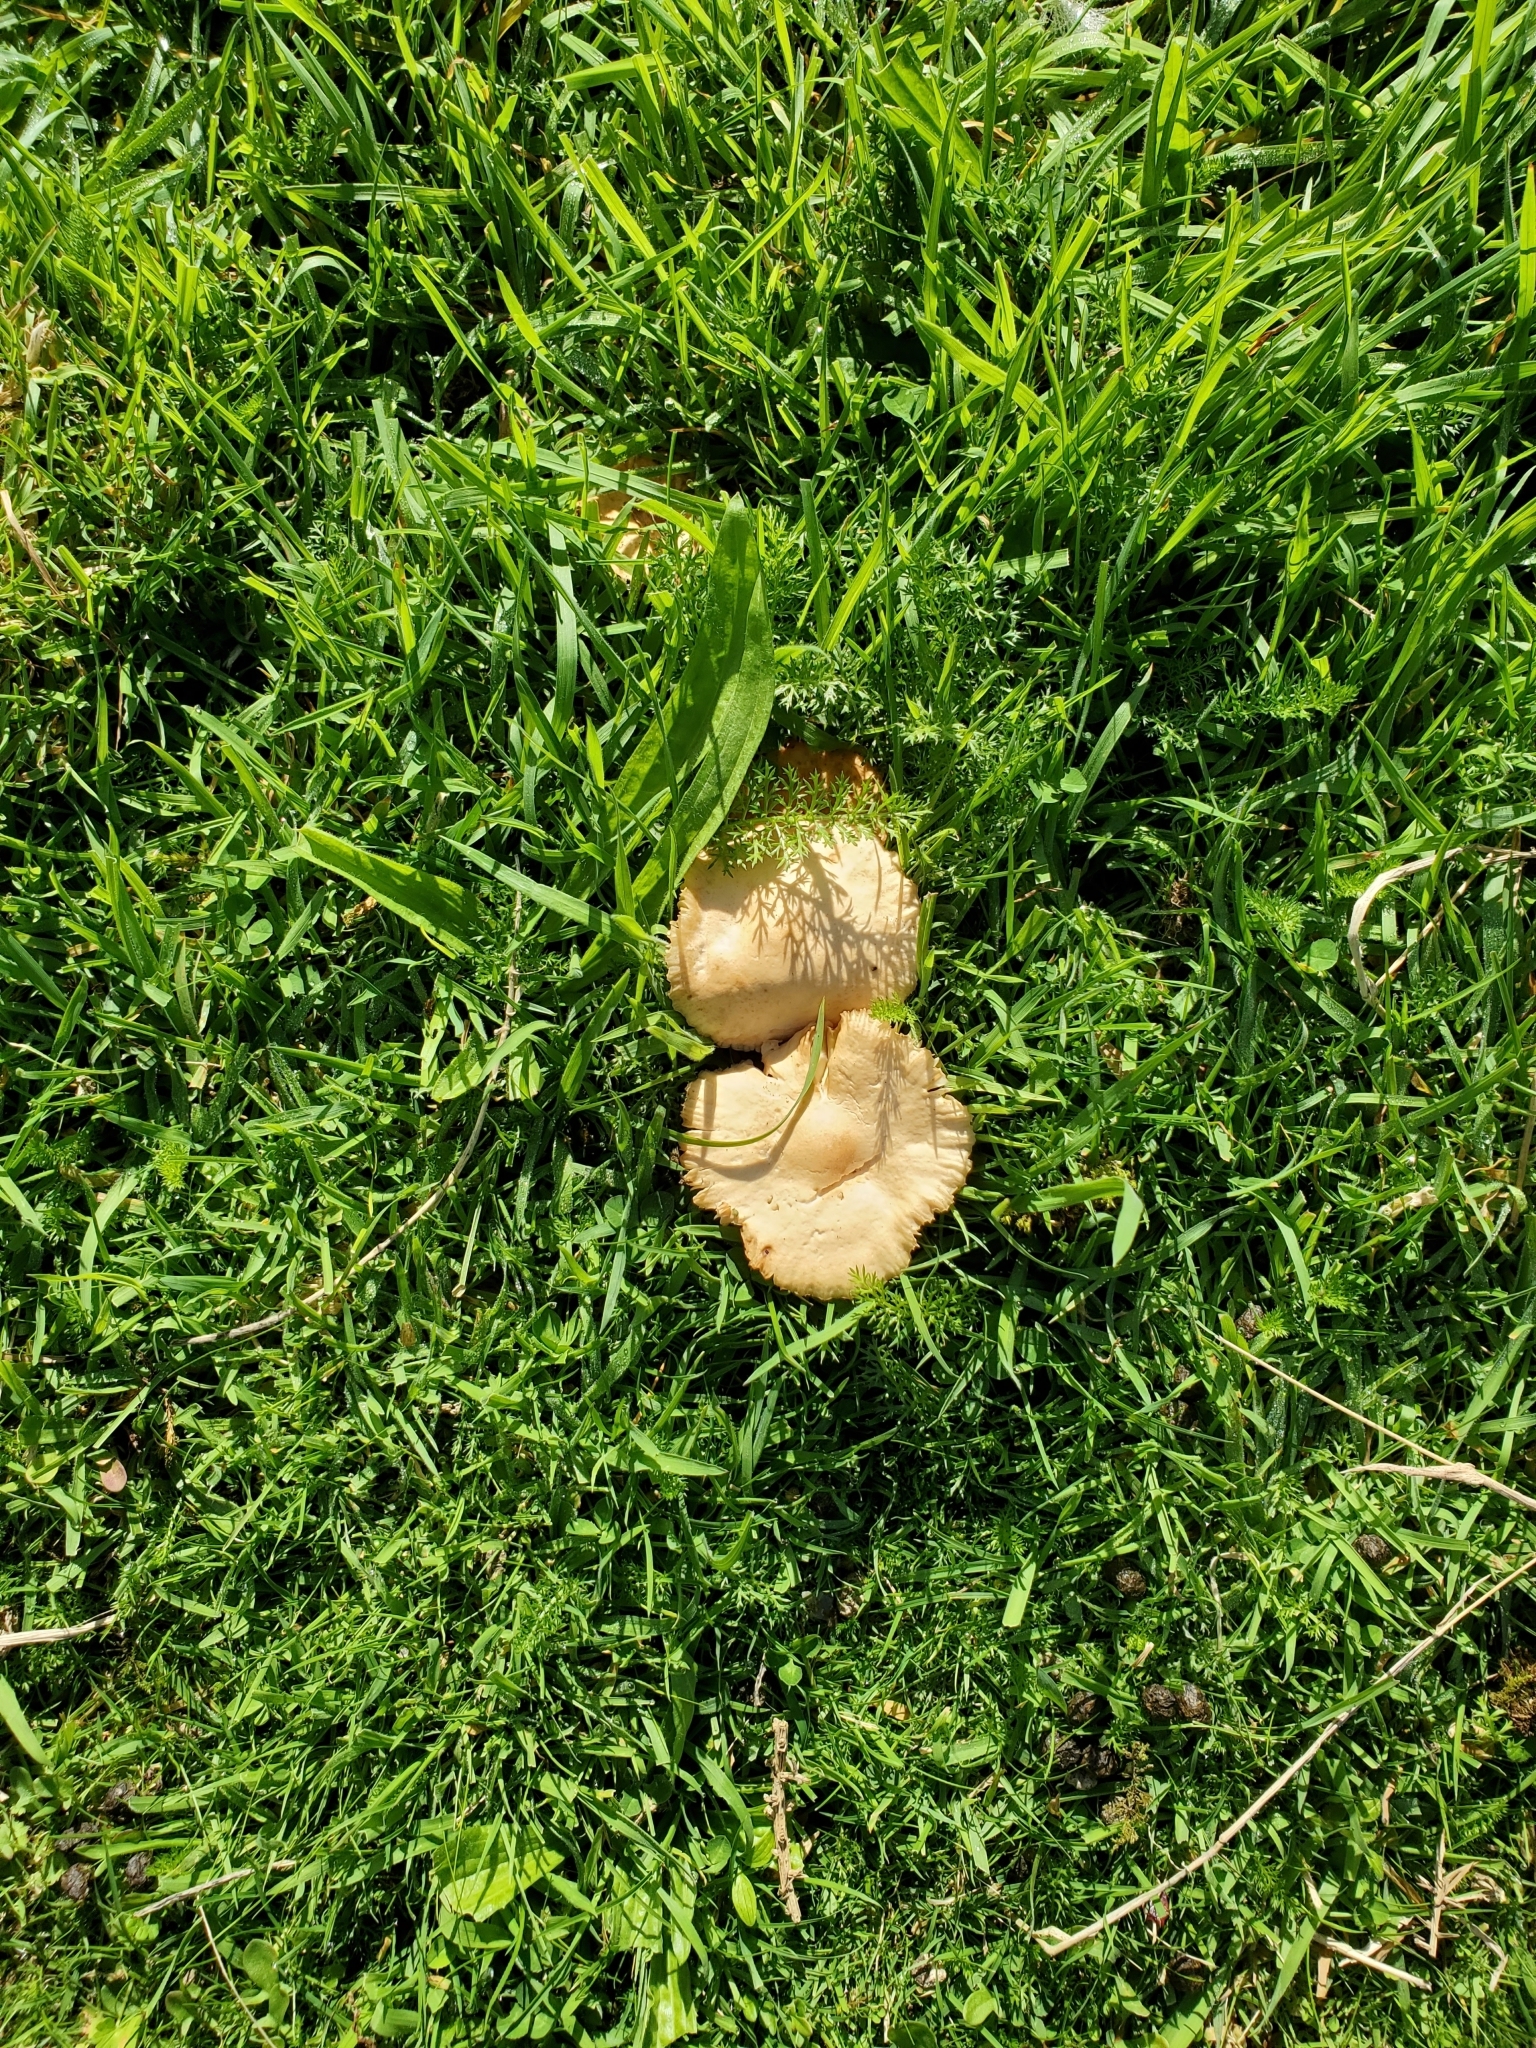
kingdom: Fungi
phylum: Basidiomycota
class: Agaricomycetes
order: Agaricales
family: Marasmiaceae
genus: Marasmius
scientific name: Marasmius oreades
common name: Fairy ring champignon
